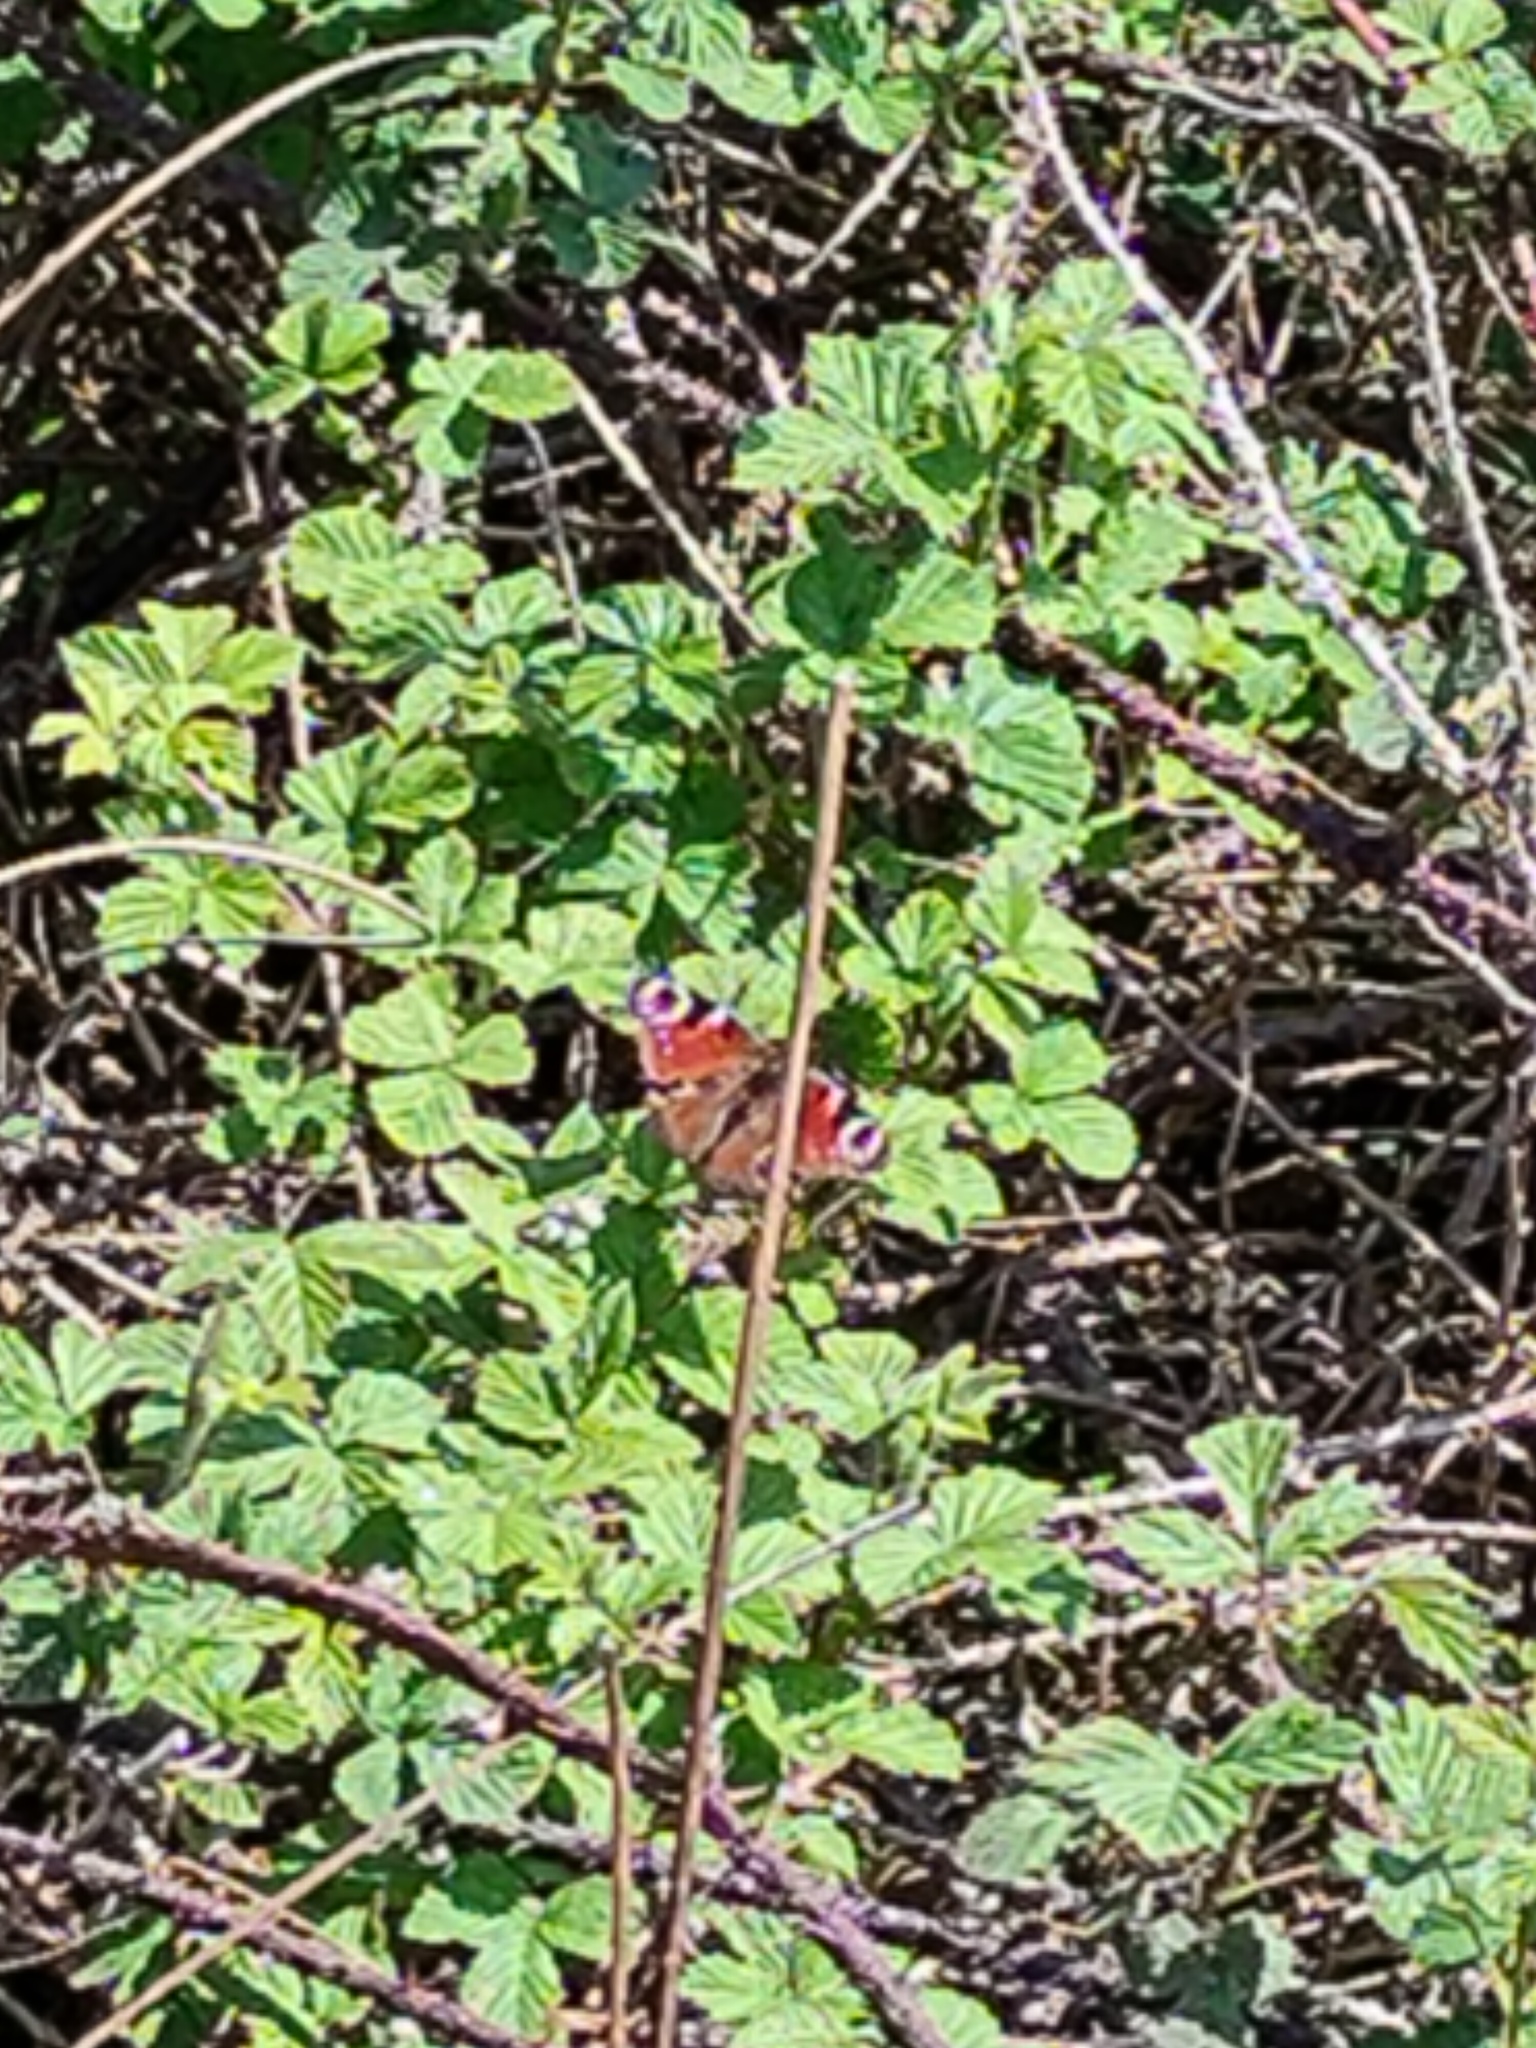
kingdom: Animalia
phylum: Arthropoda
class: Insecta
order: Lepidoptera
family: Nymphalidae
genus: Aglais
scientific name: Aglais io
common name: Peacock
